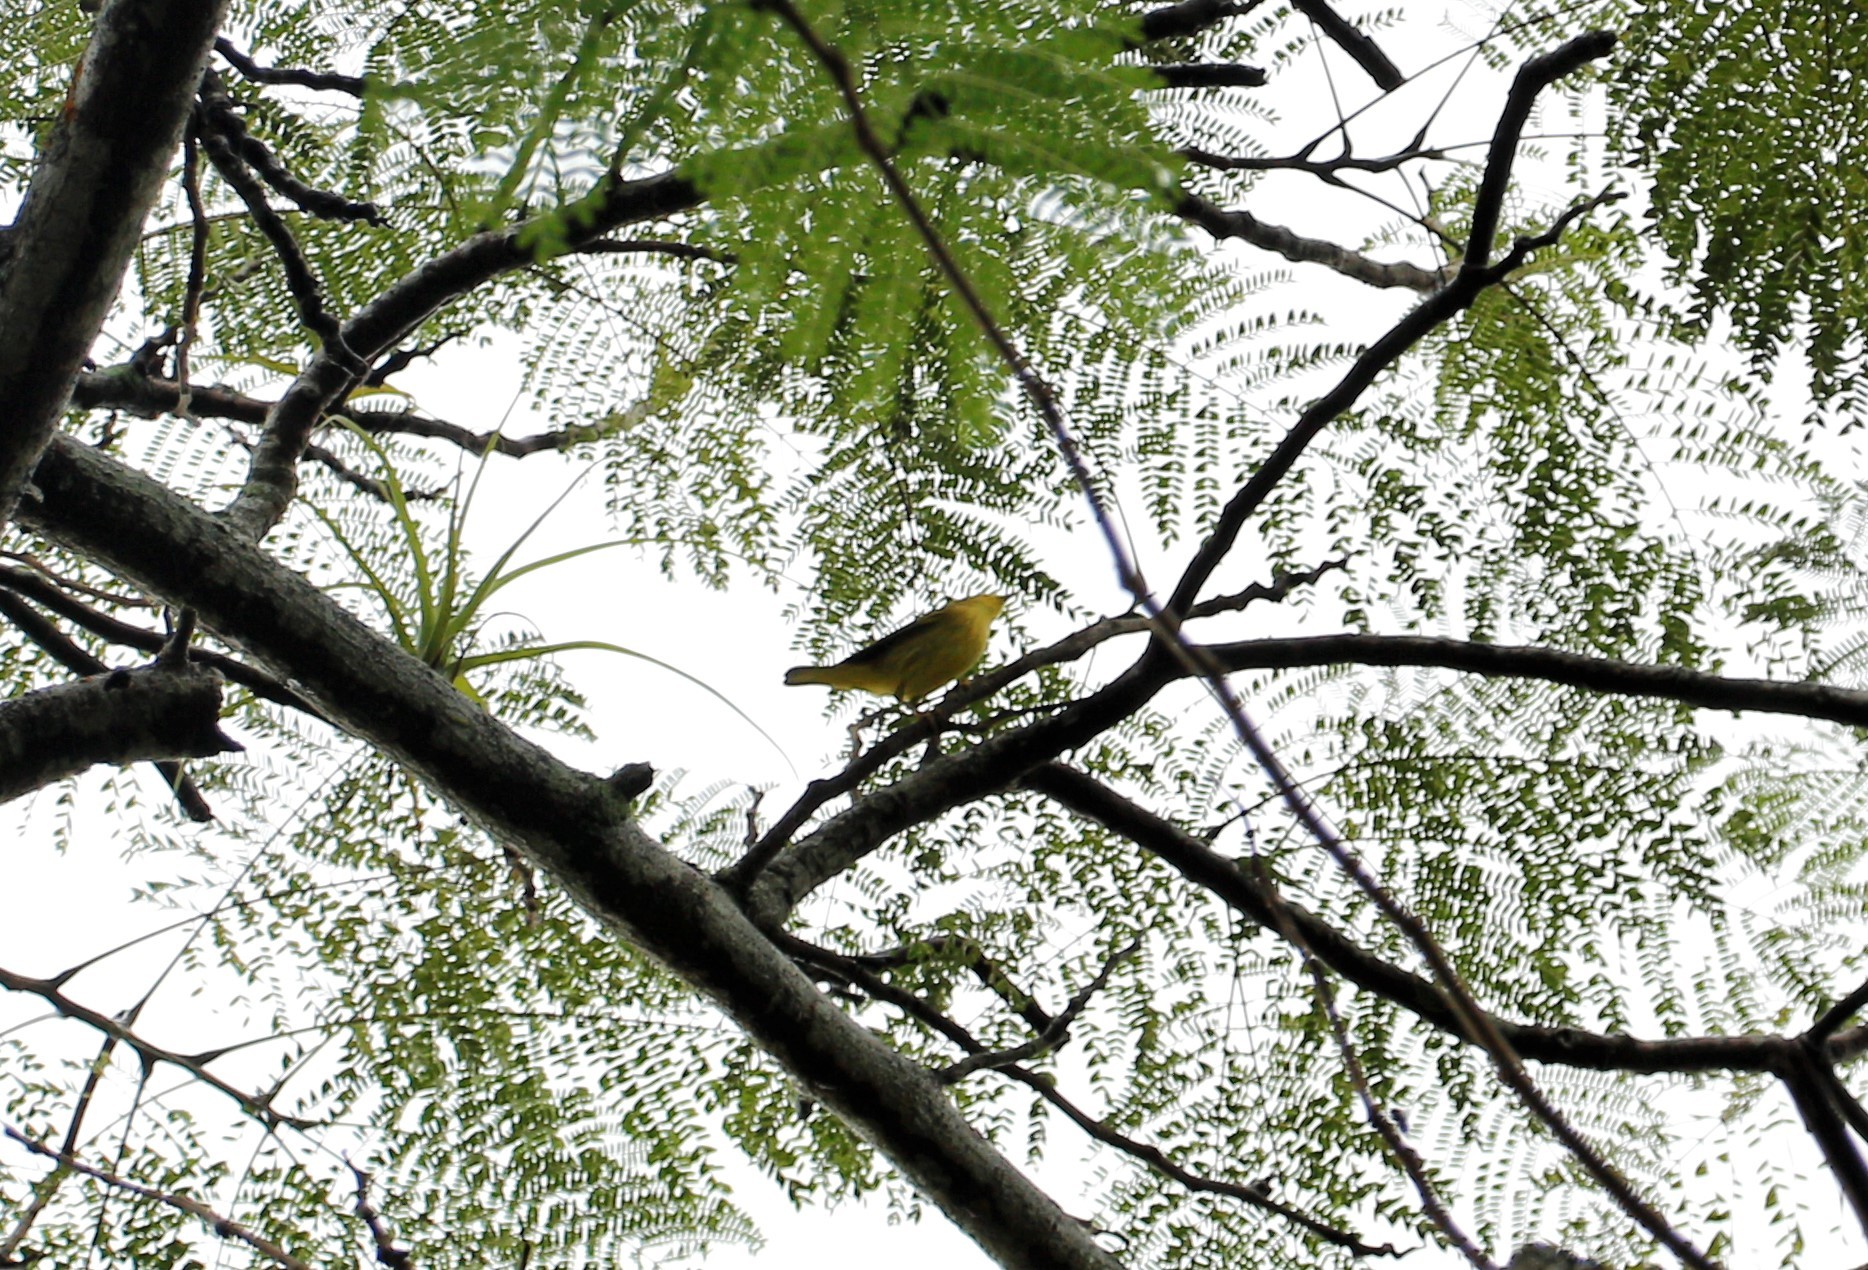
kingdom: Animalia
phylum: Chordata
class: Aves
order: Passeriformes
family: Parulidae
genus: Setophaga
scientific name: Setophaga petechia
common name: Yellow warbler
